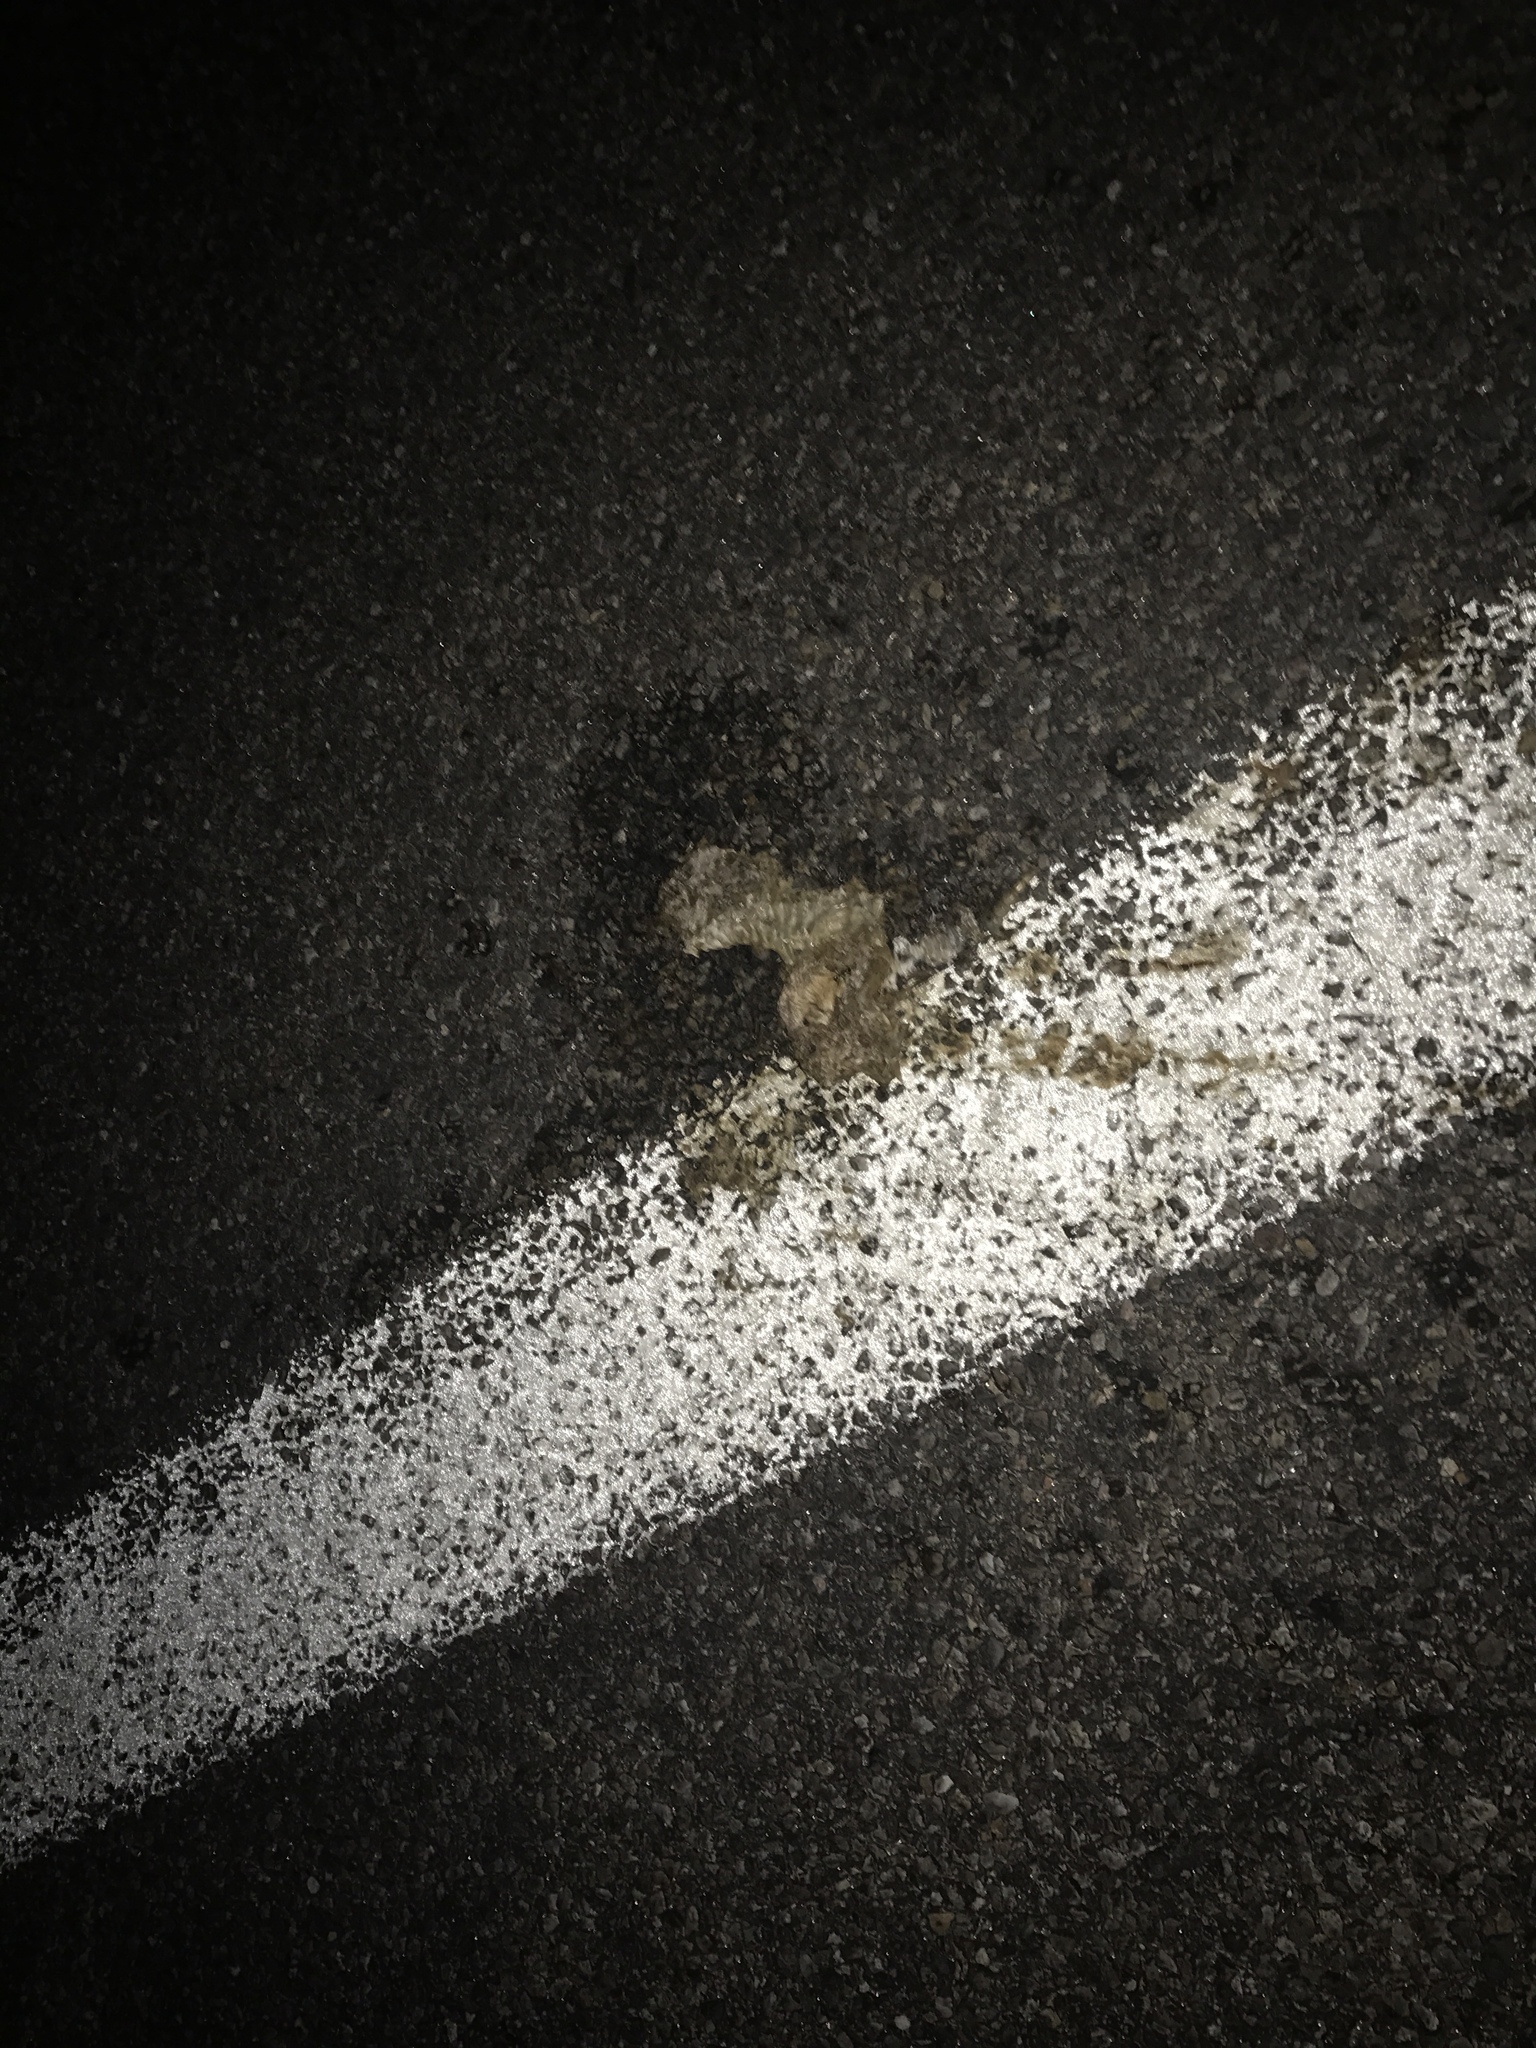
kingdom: Animalia
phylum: Chordata
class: Squamata
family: Viperidae
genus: Crotalus
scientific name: Crotalus atrox
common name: Western diamond-backed rattlesnake
